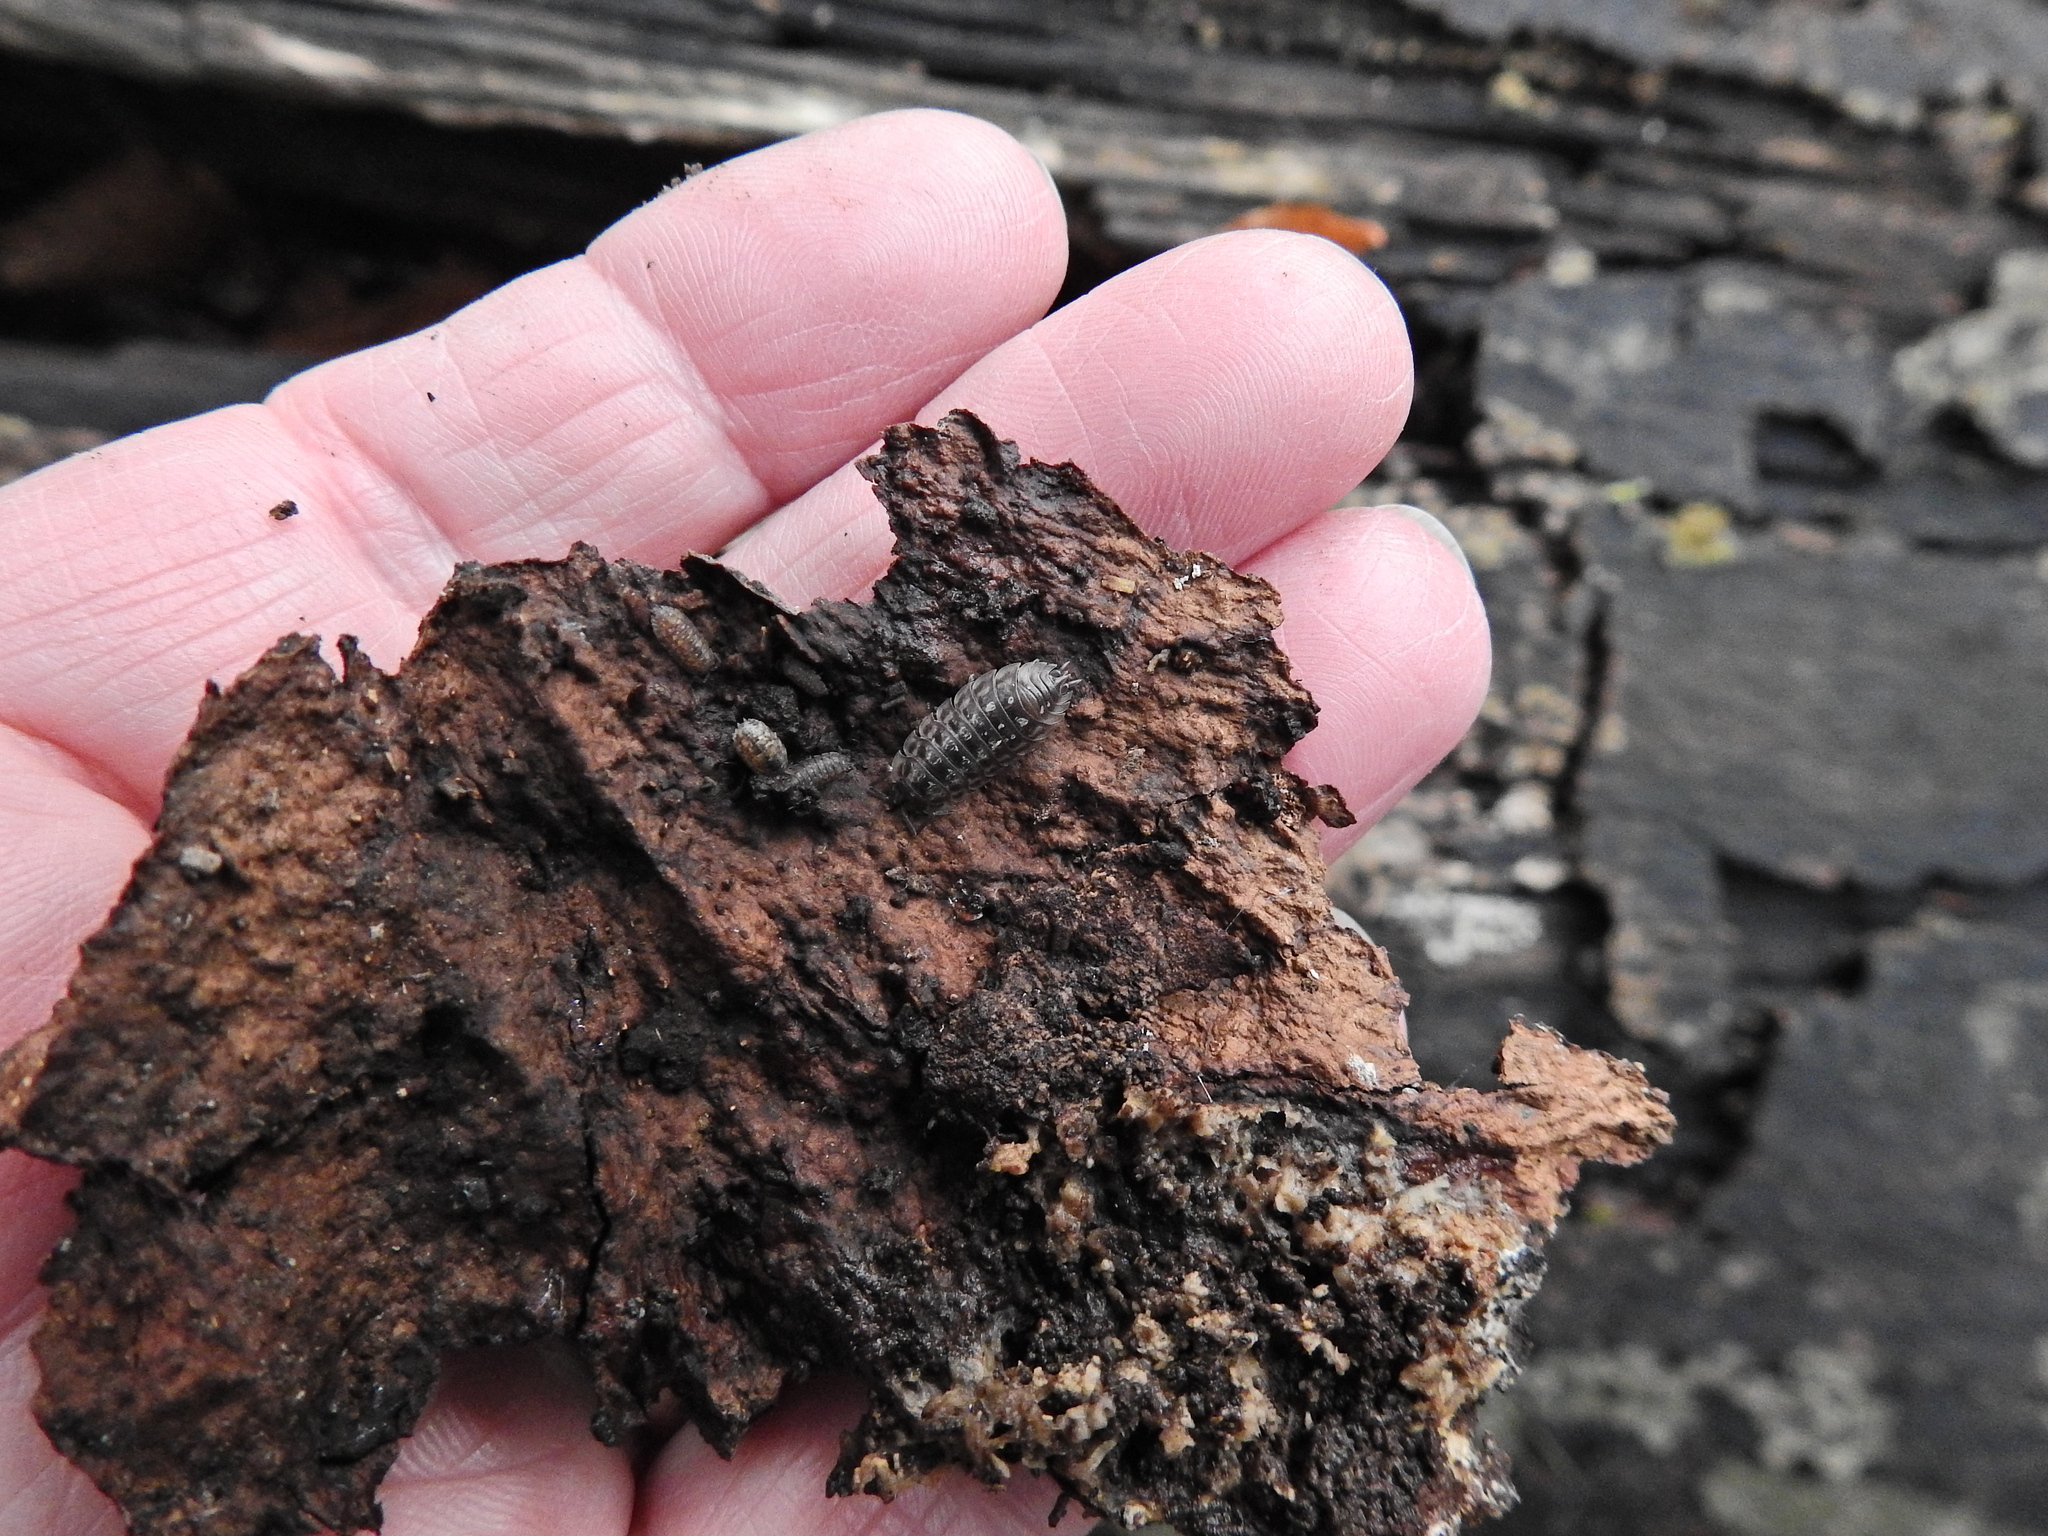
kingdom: Animalia
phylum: Arthropoda
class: Malacostraca
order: Isopoda
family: Oniscidae
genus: Oniscus
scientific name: Oniscus asellus
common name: Common shiny woodlouse
